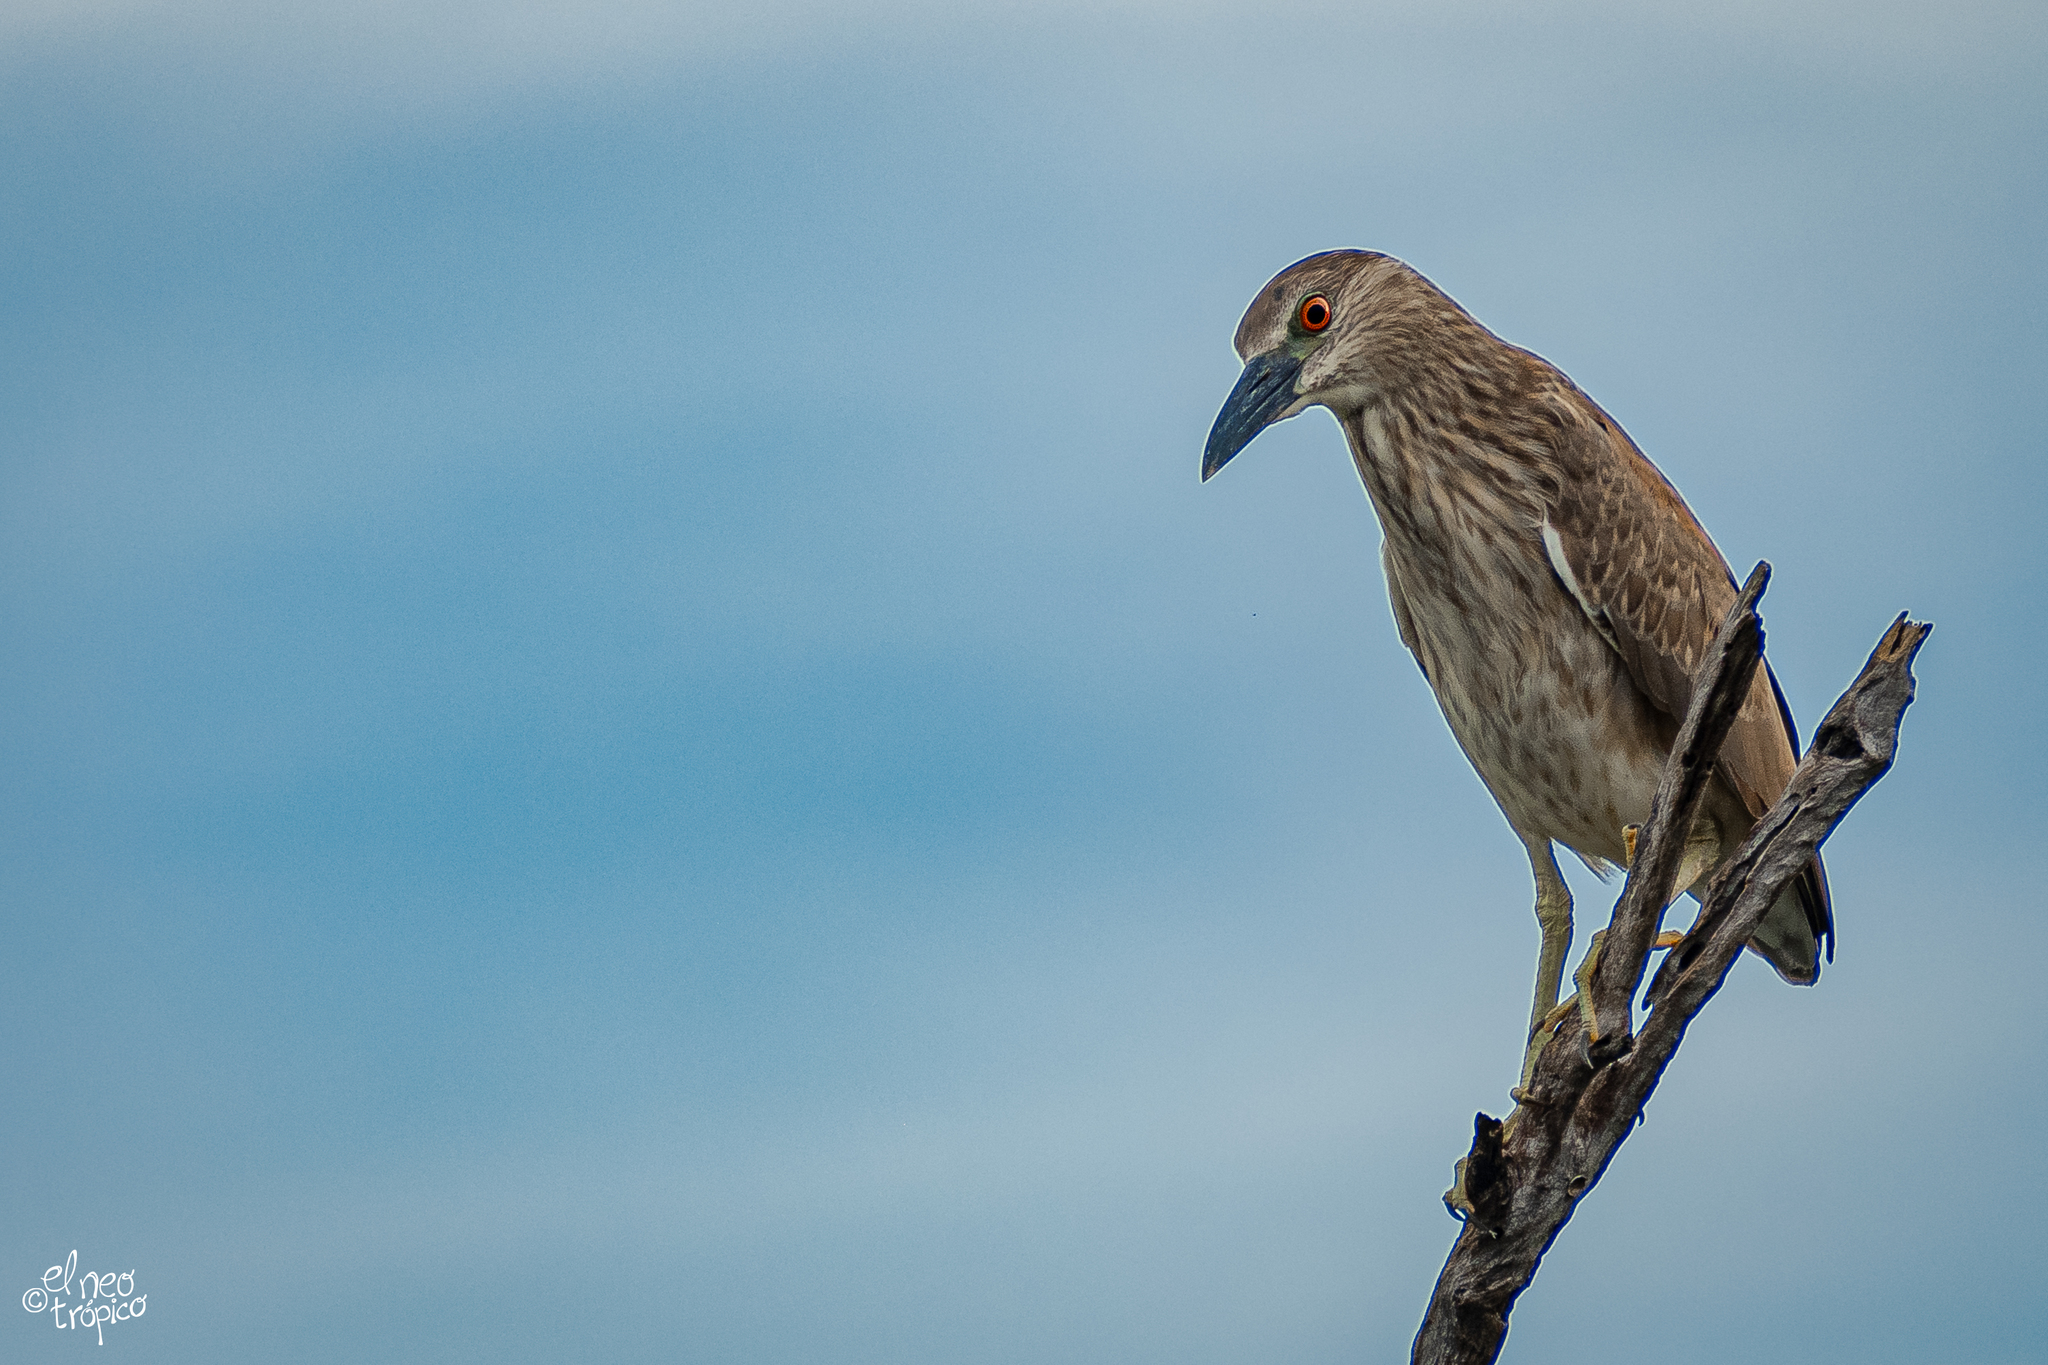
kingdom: Animalia
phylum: Chordata
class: Aves
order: Pelecaniformes
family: Ardeidae
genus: Nycticorax
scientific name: Nycticorax nycticorax
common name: Black-crowned night heron
